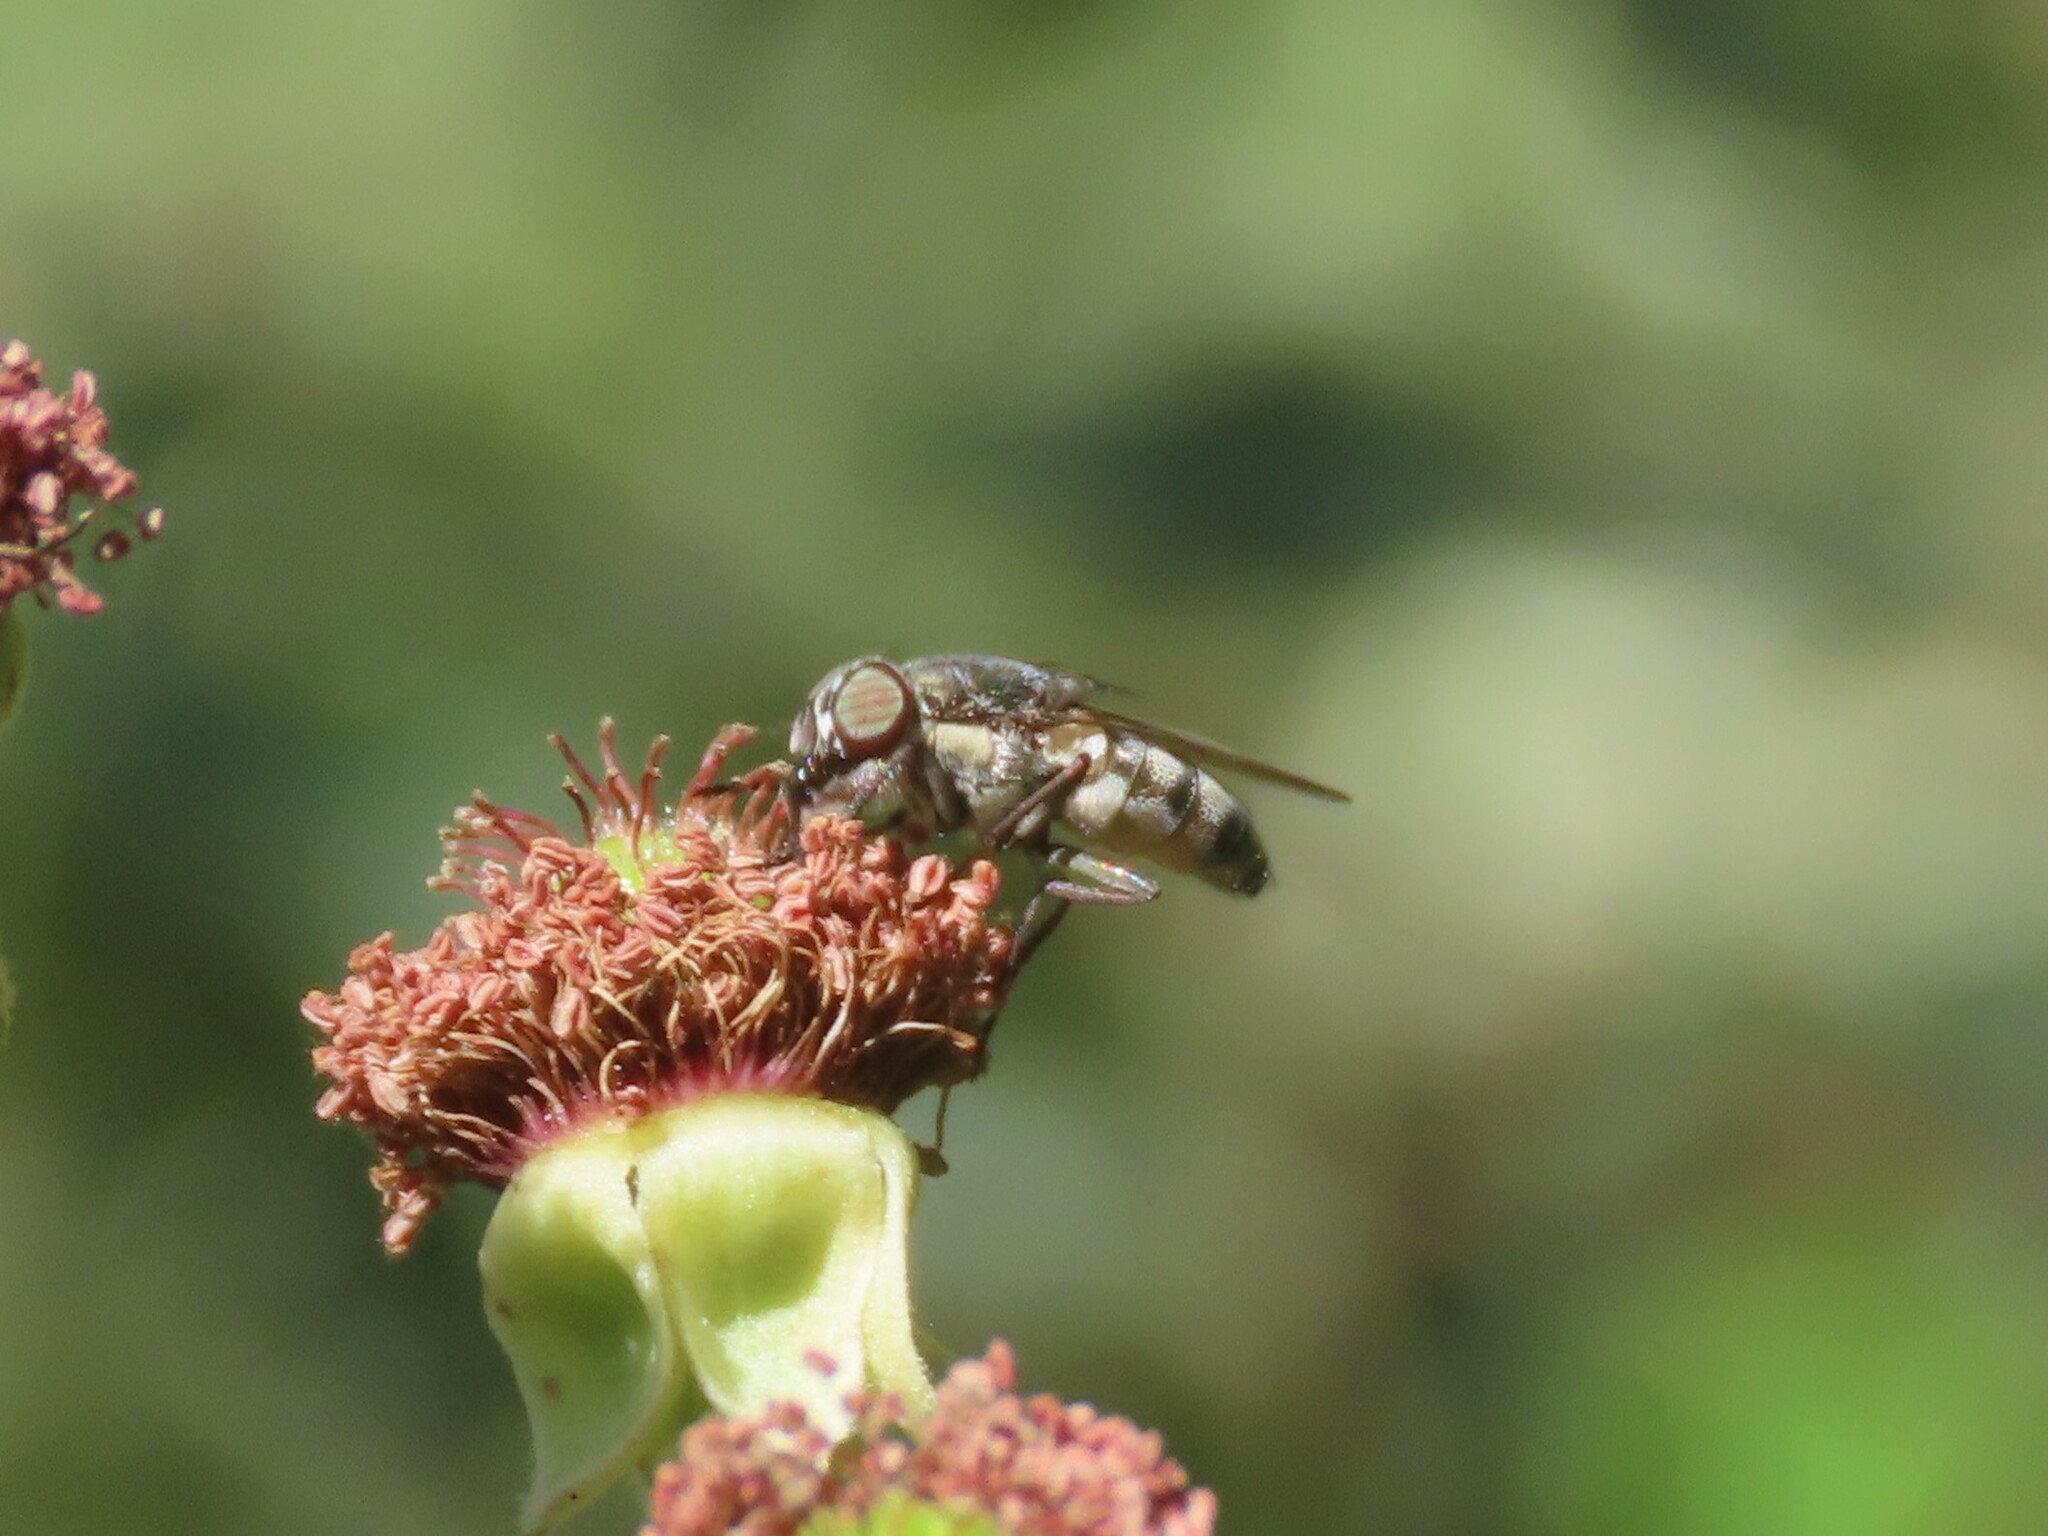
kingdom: Animalia
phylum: Arthropoda
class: Insecta
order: Diptera
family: Calliphoridae
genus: Stomorhina
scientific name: Stomorhina lunata
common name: Locust blowfly
